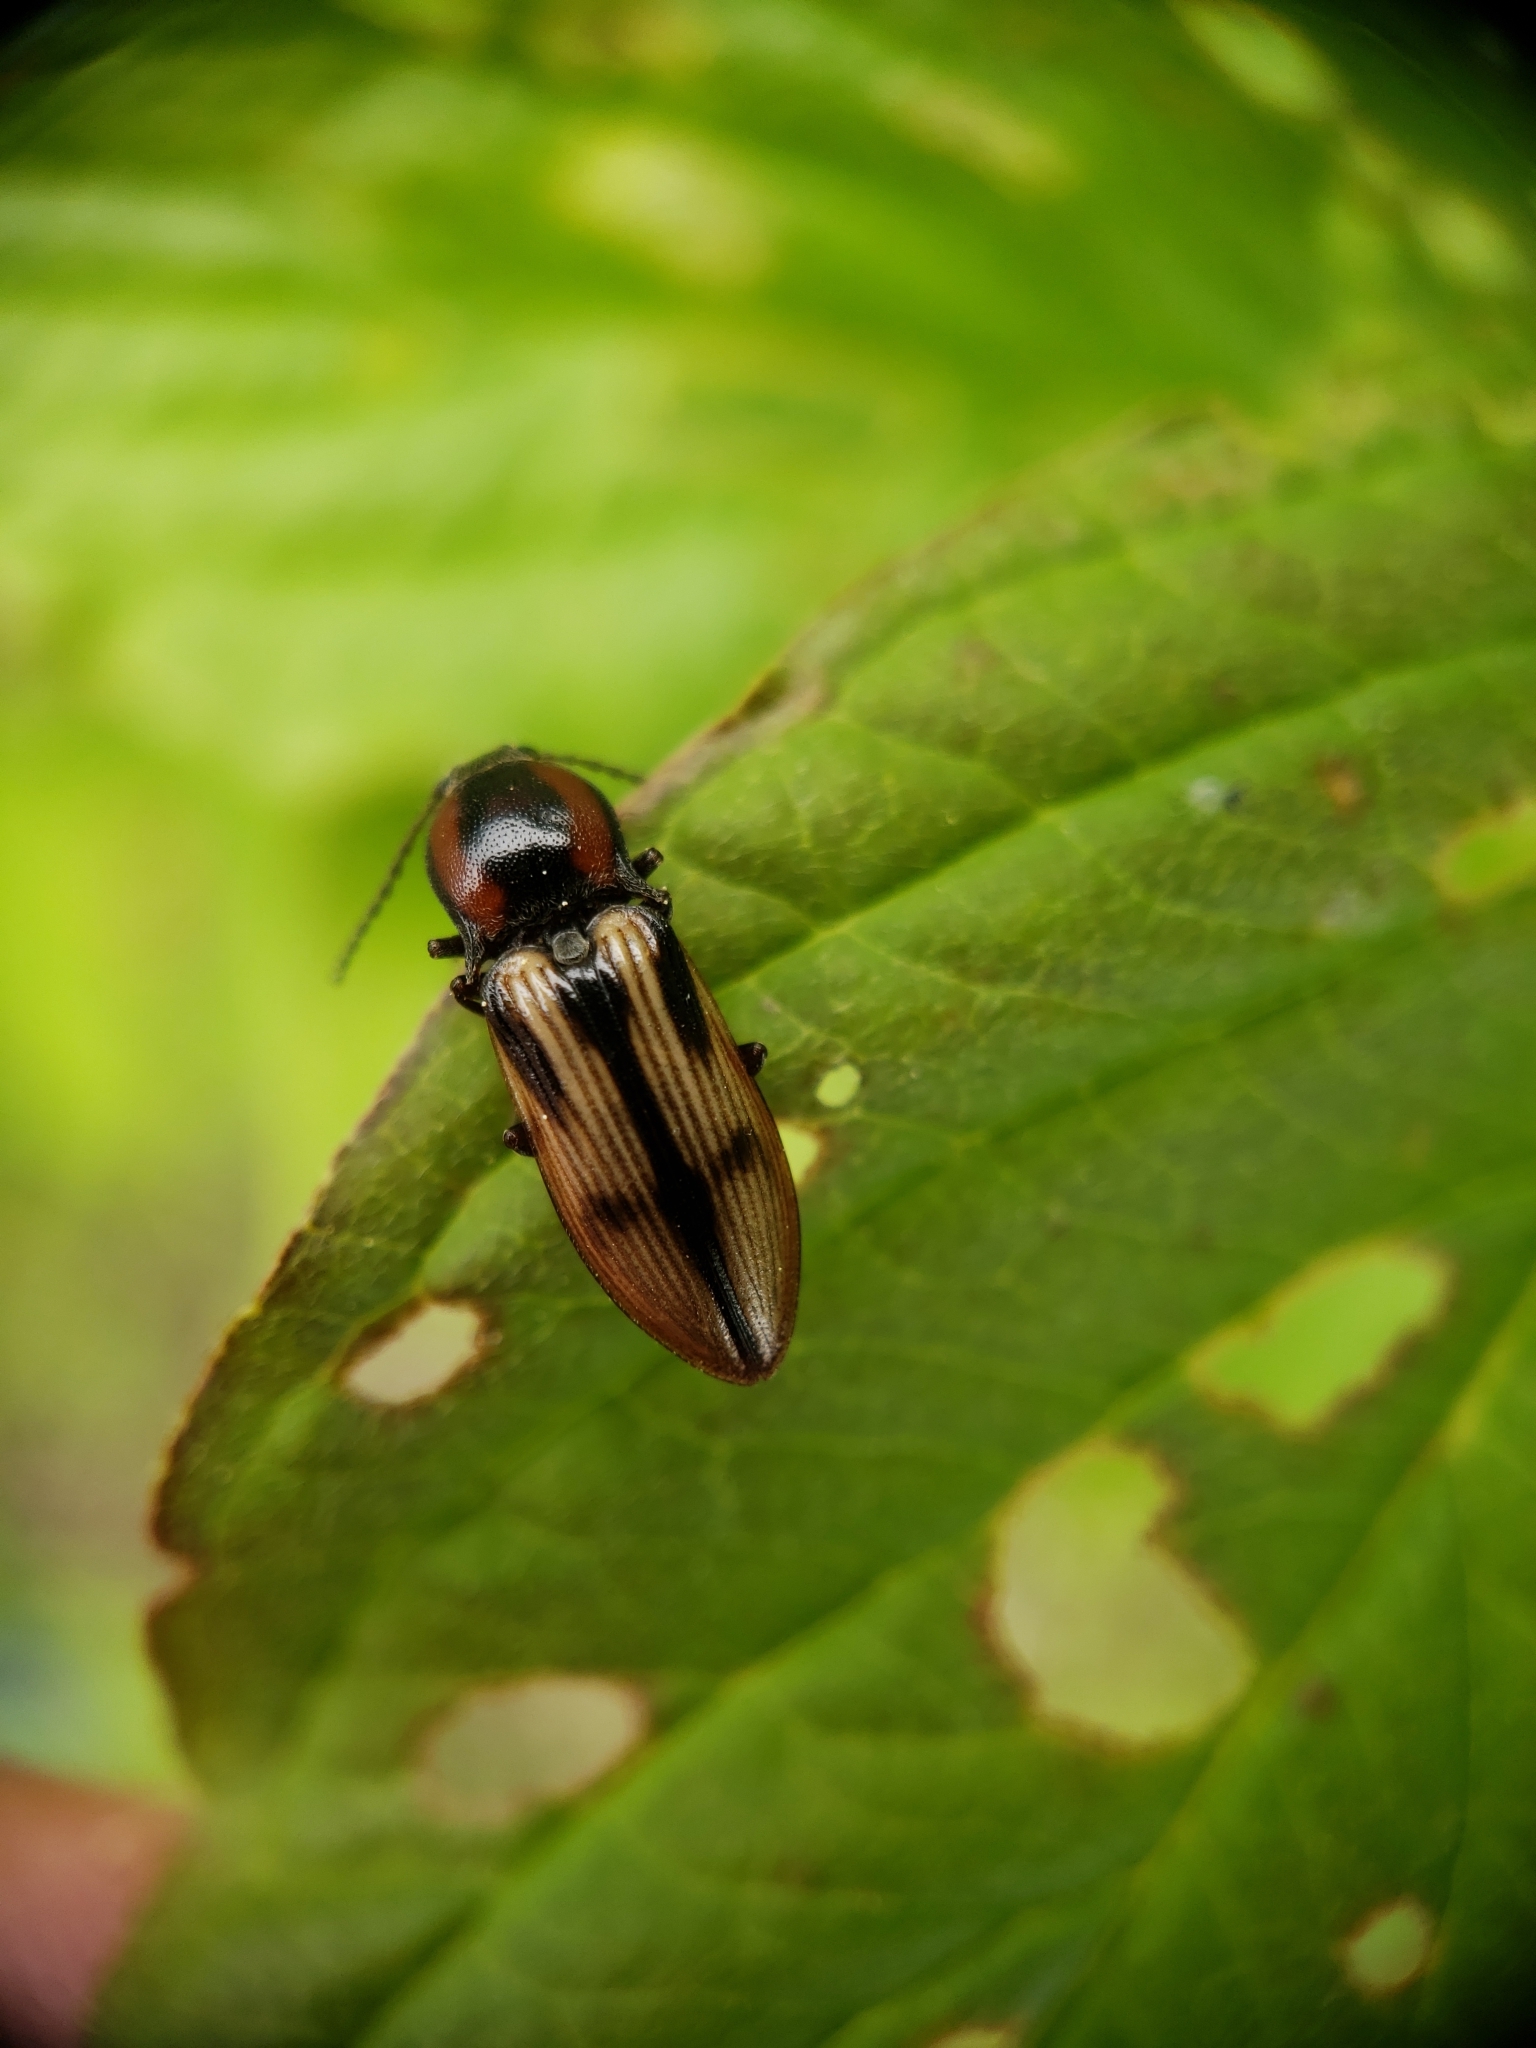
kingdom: Animalia
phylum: Arthropoda
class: Insecta
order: Coleoptera
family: Elateridae
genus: Selatosomus
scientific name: Selatosomus pulcher
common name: Noble click beetle
